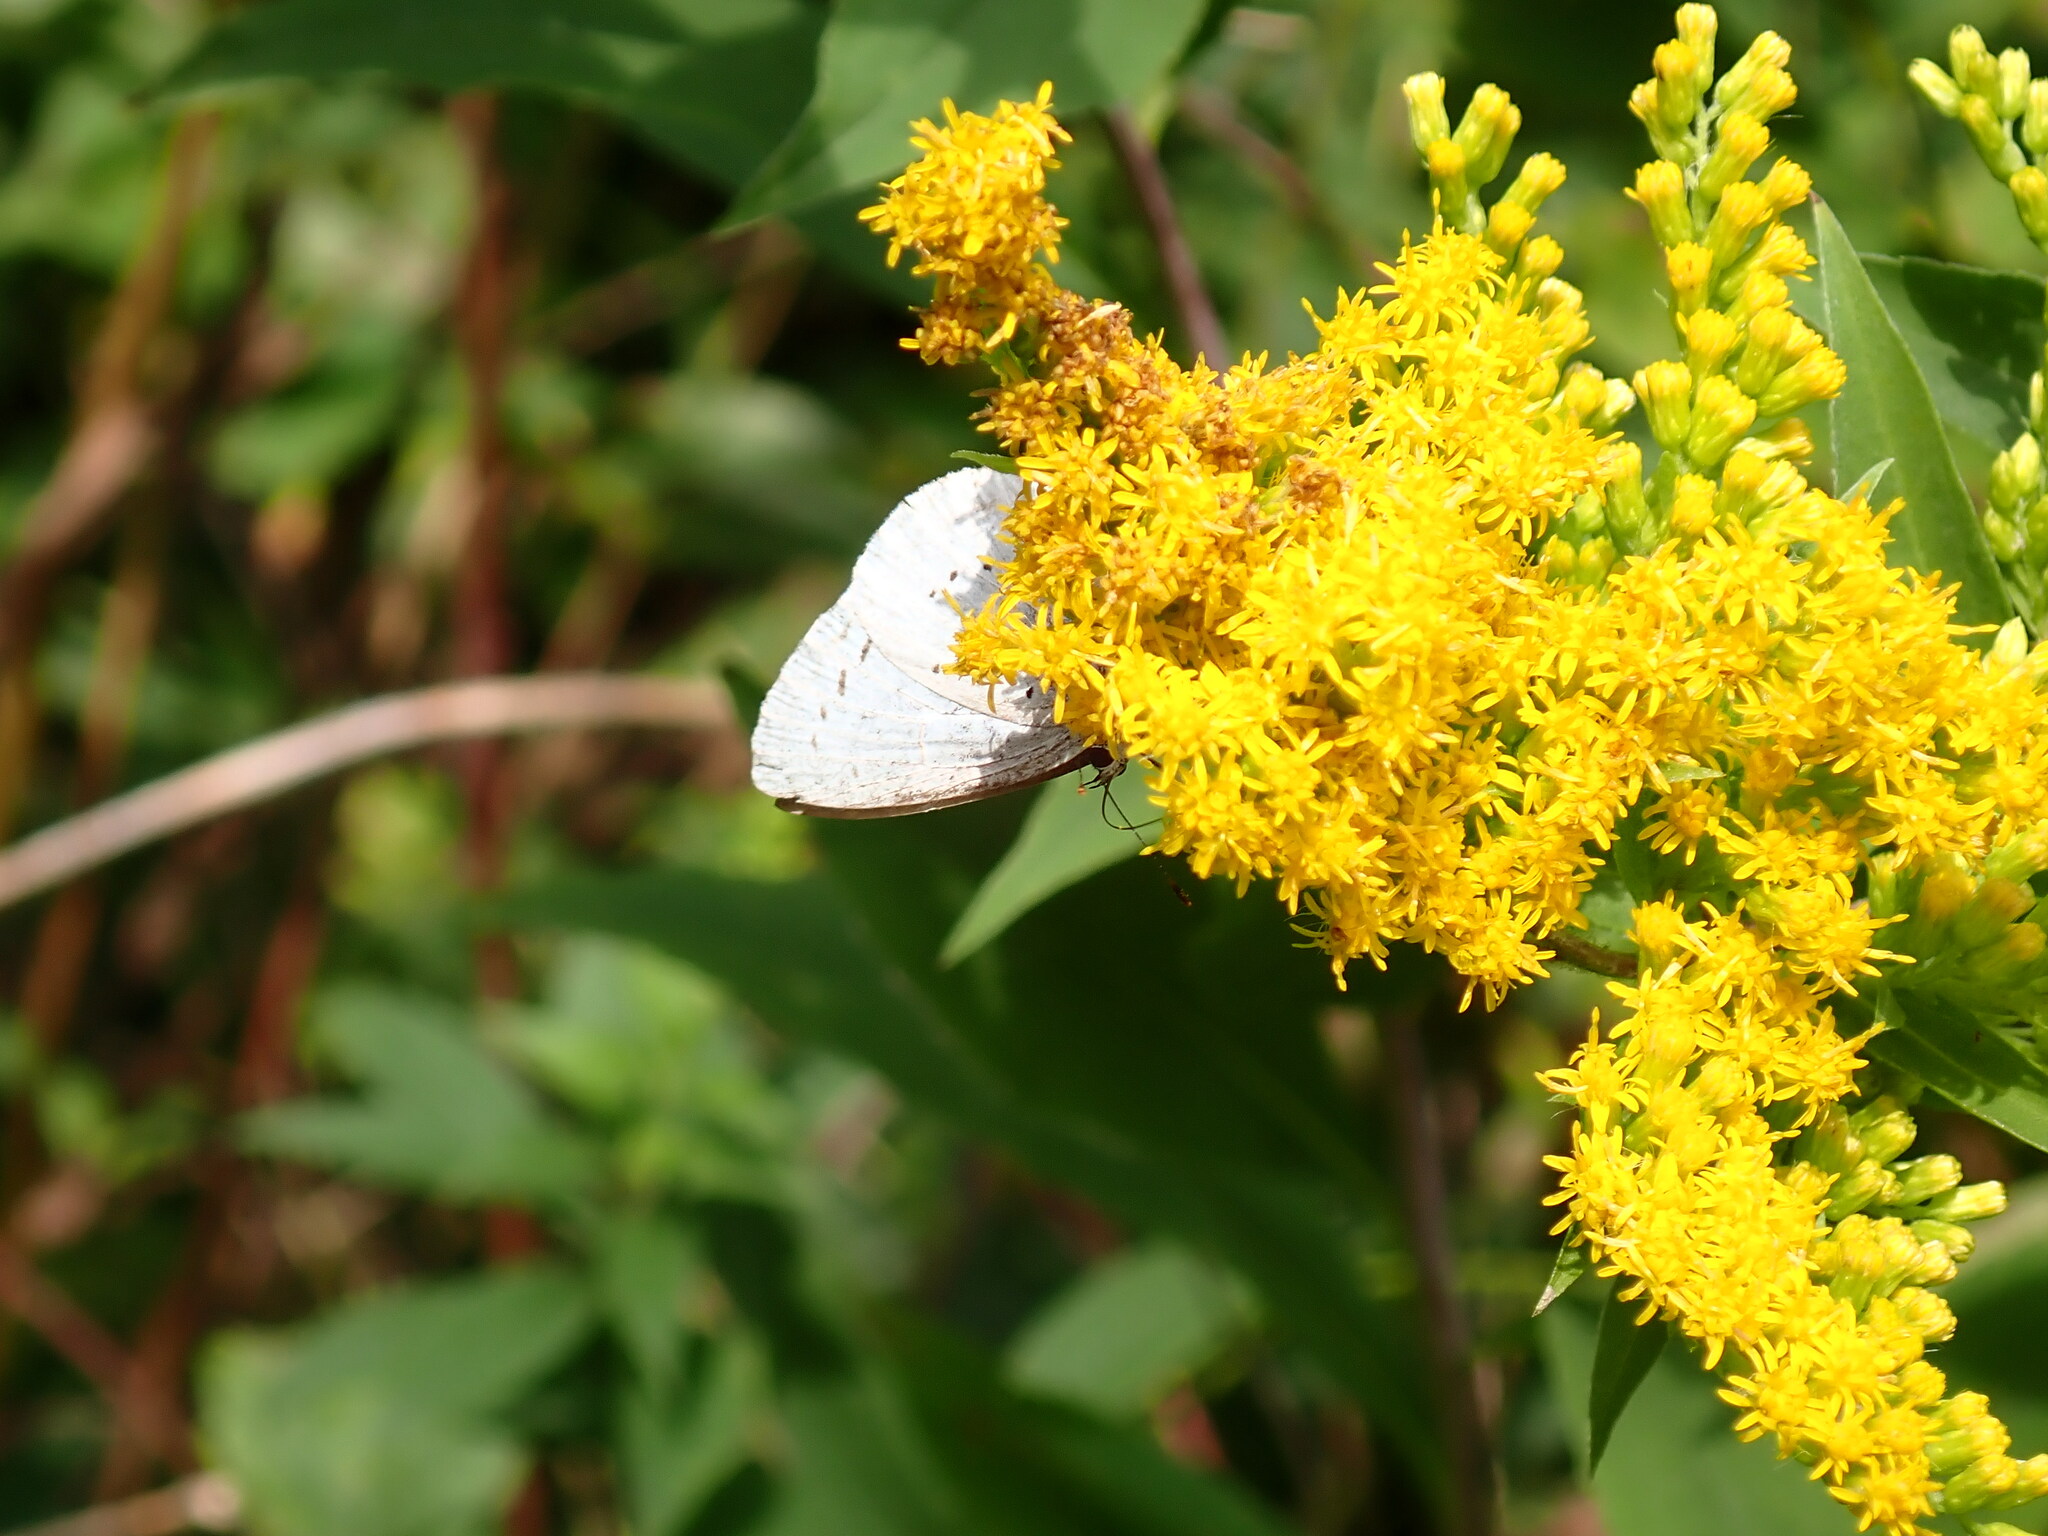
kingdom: Animalia
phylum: Arthropoda
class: Insecta
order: Lepidoptera
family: Lycaenidae
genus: Celastrina
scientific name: Celastrina argiolus
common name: Holly blue
